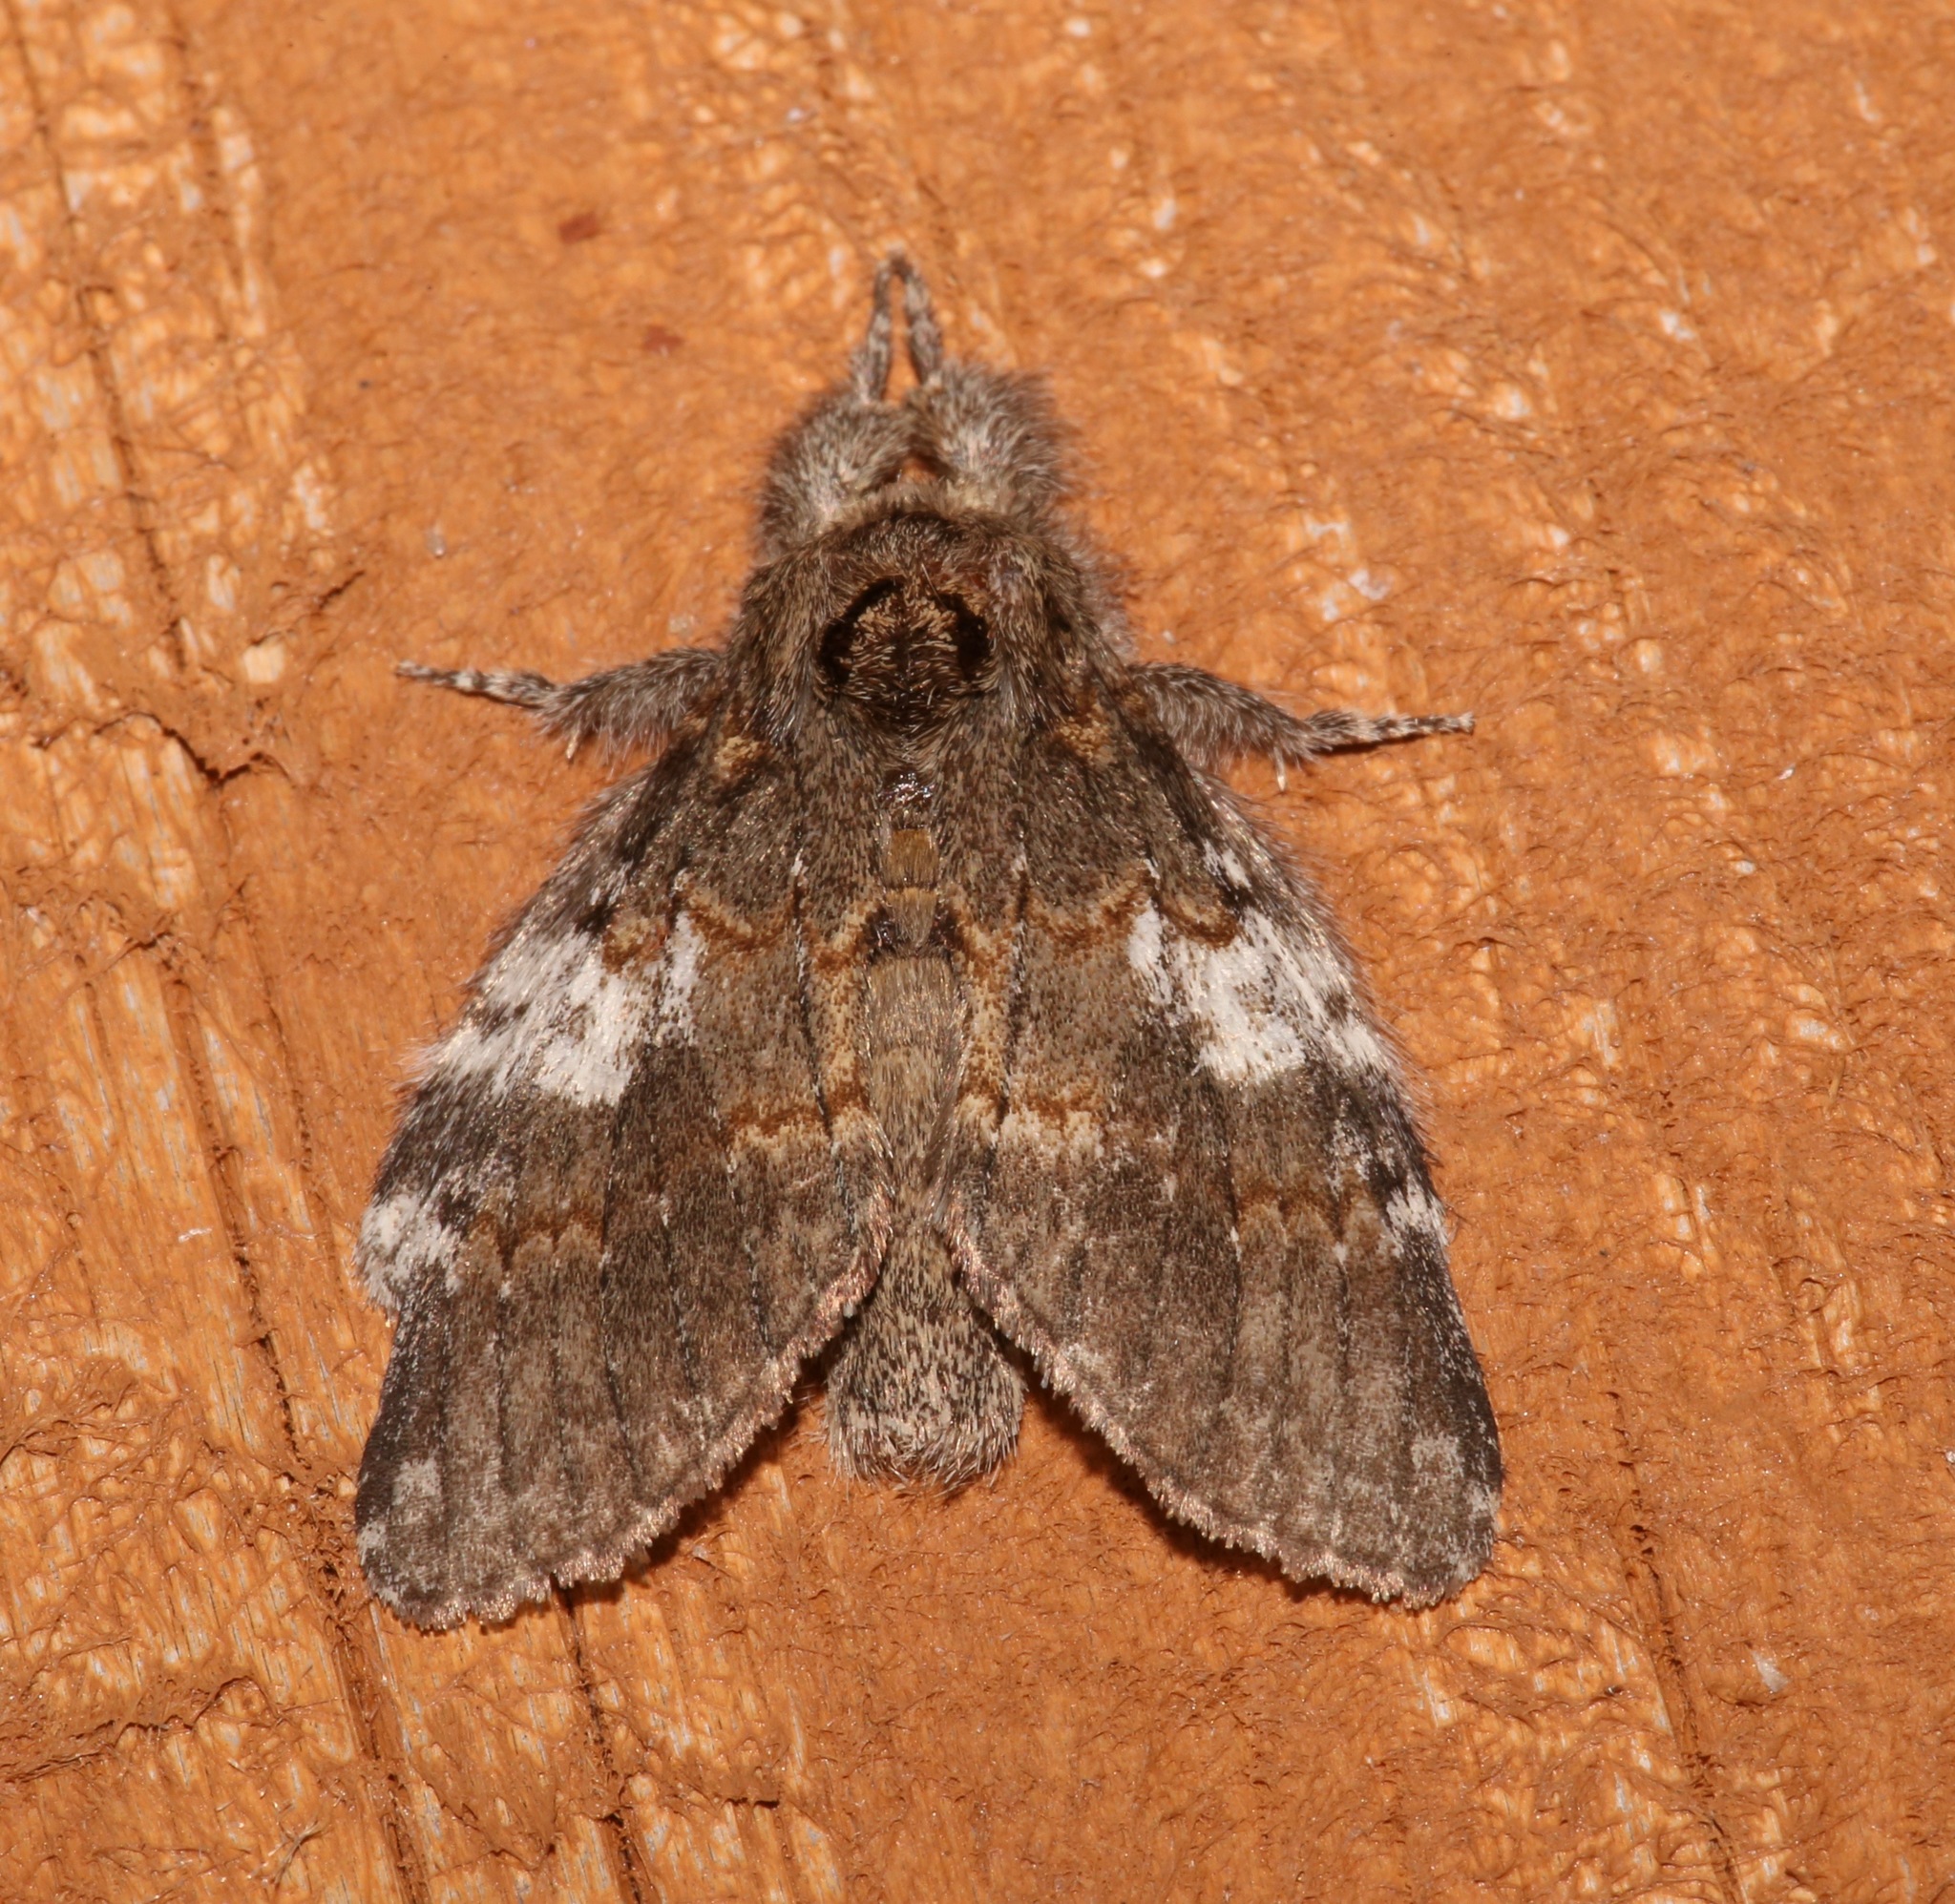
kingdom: Animalia
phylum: Arthropoda
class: Insecta
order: Lepidoptera
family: Notodontidae
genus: Peridea
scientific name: Peridea angulosa
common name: Angulose prominent
